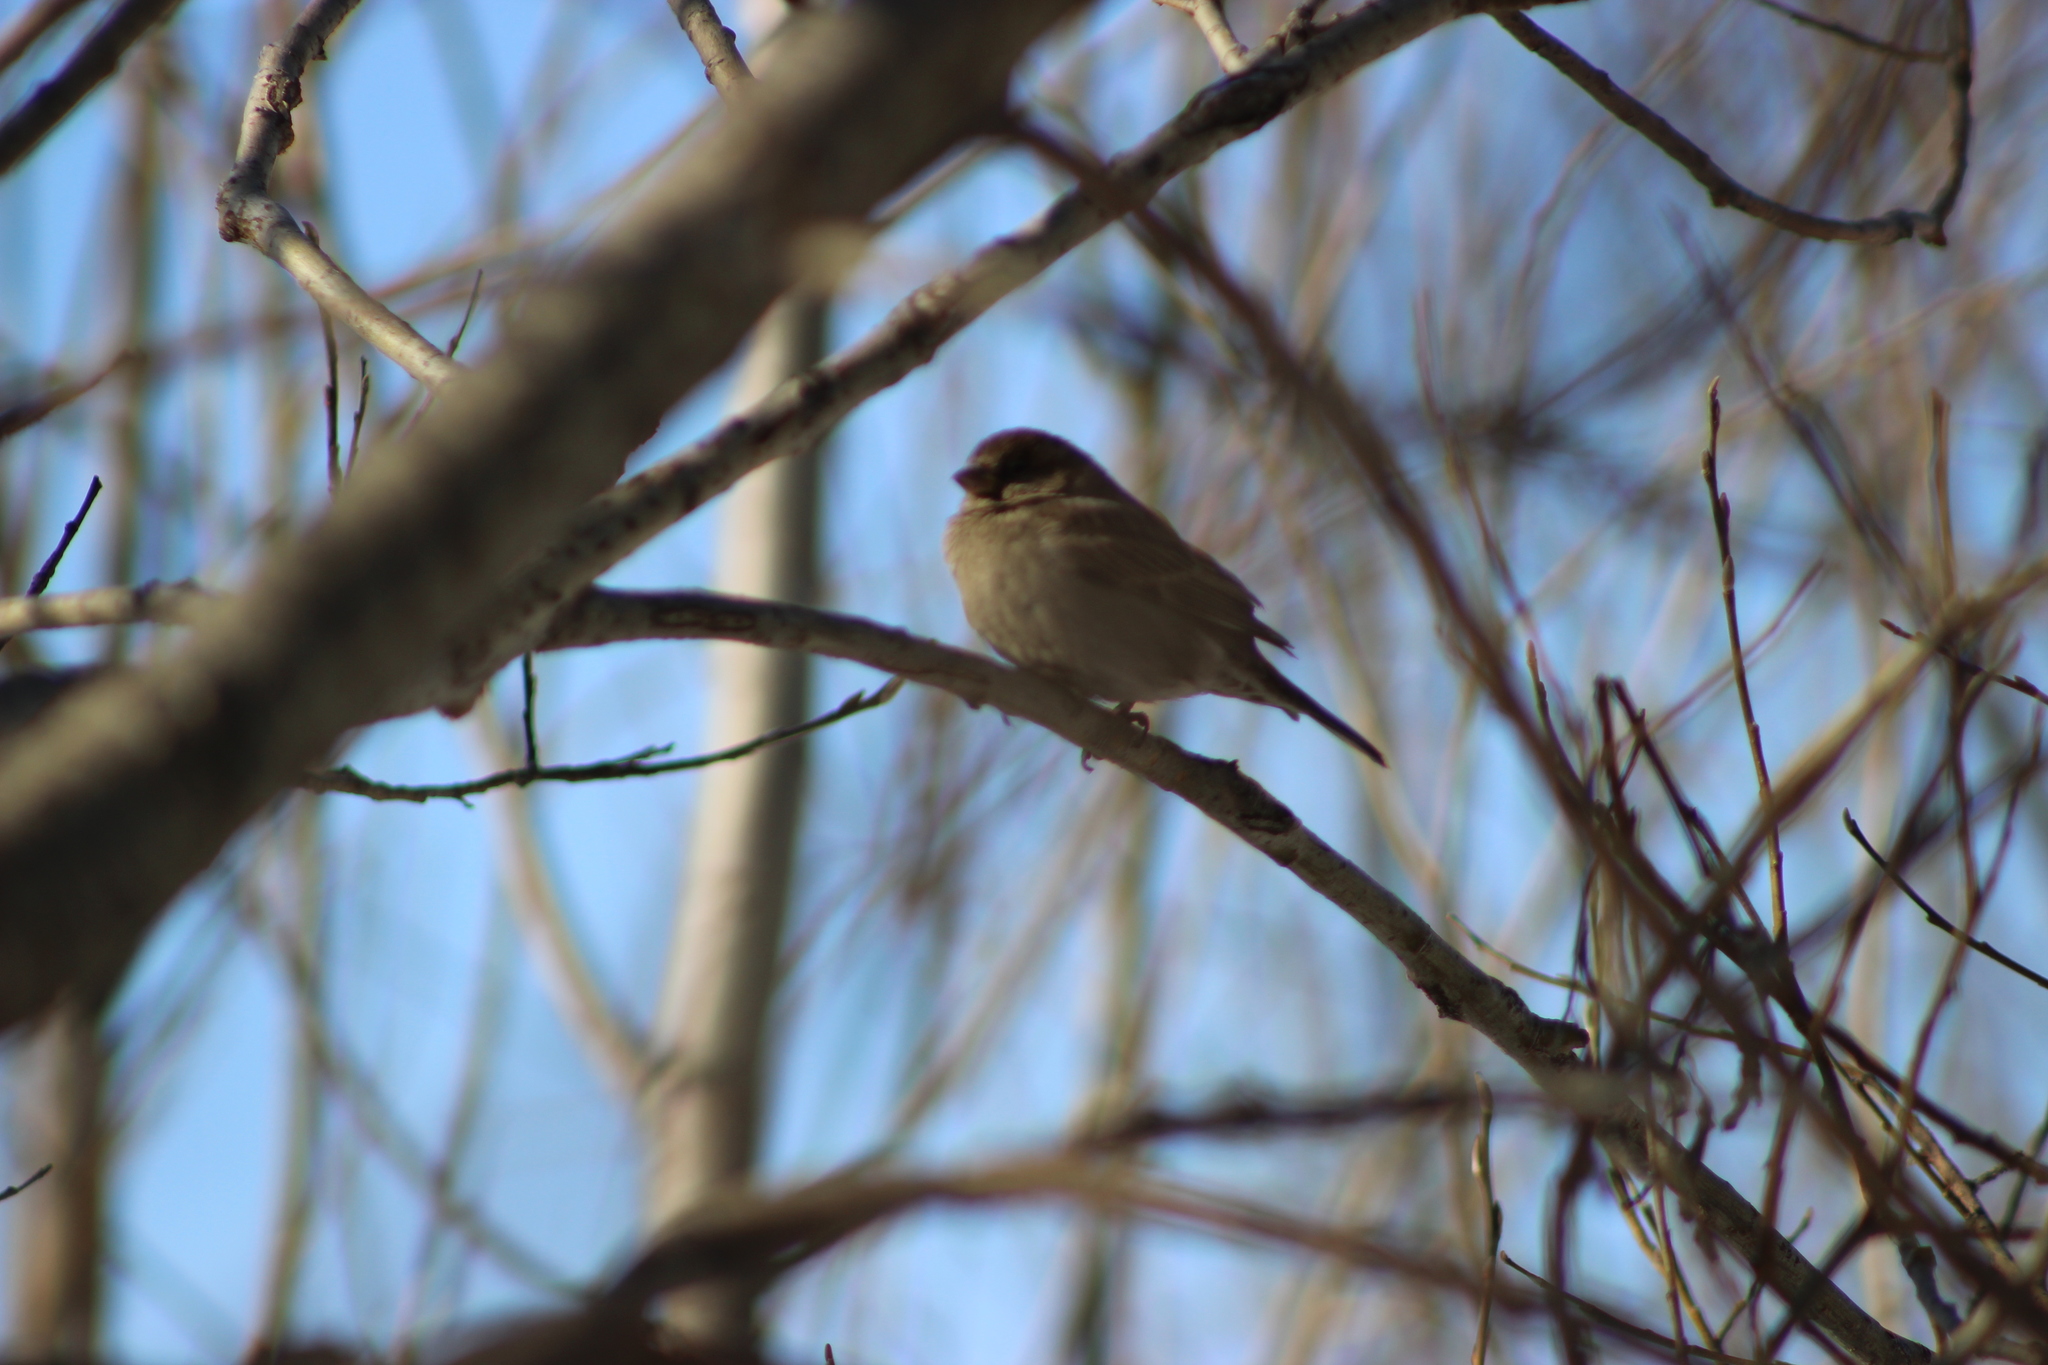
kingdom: Animalia
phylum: Chordata
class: Aves
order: Passeriformes
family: Passeridae
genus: Passer
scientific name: Passer domesticus
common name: House sparrow
